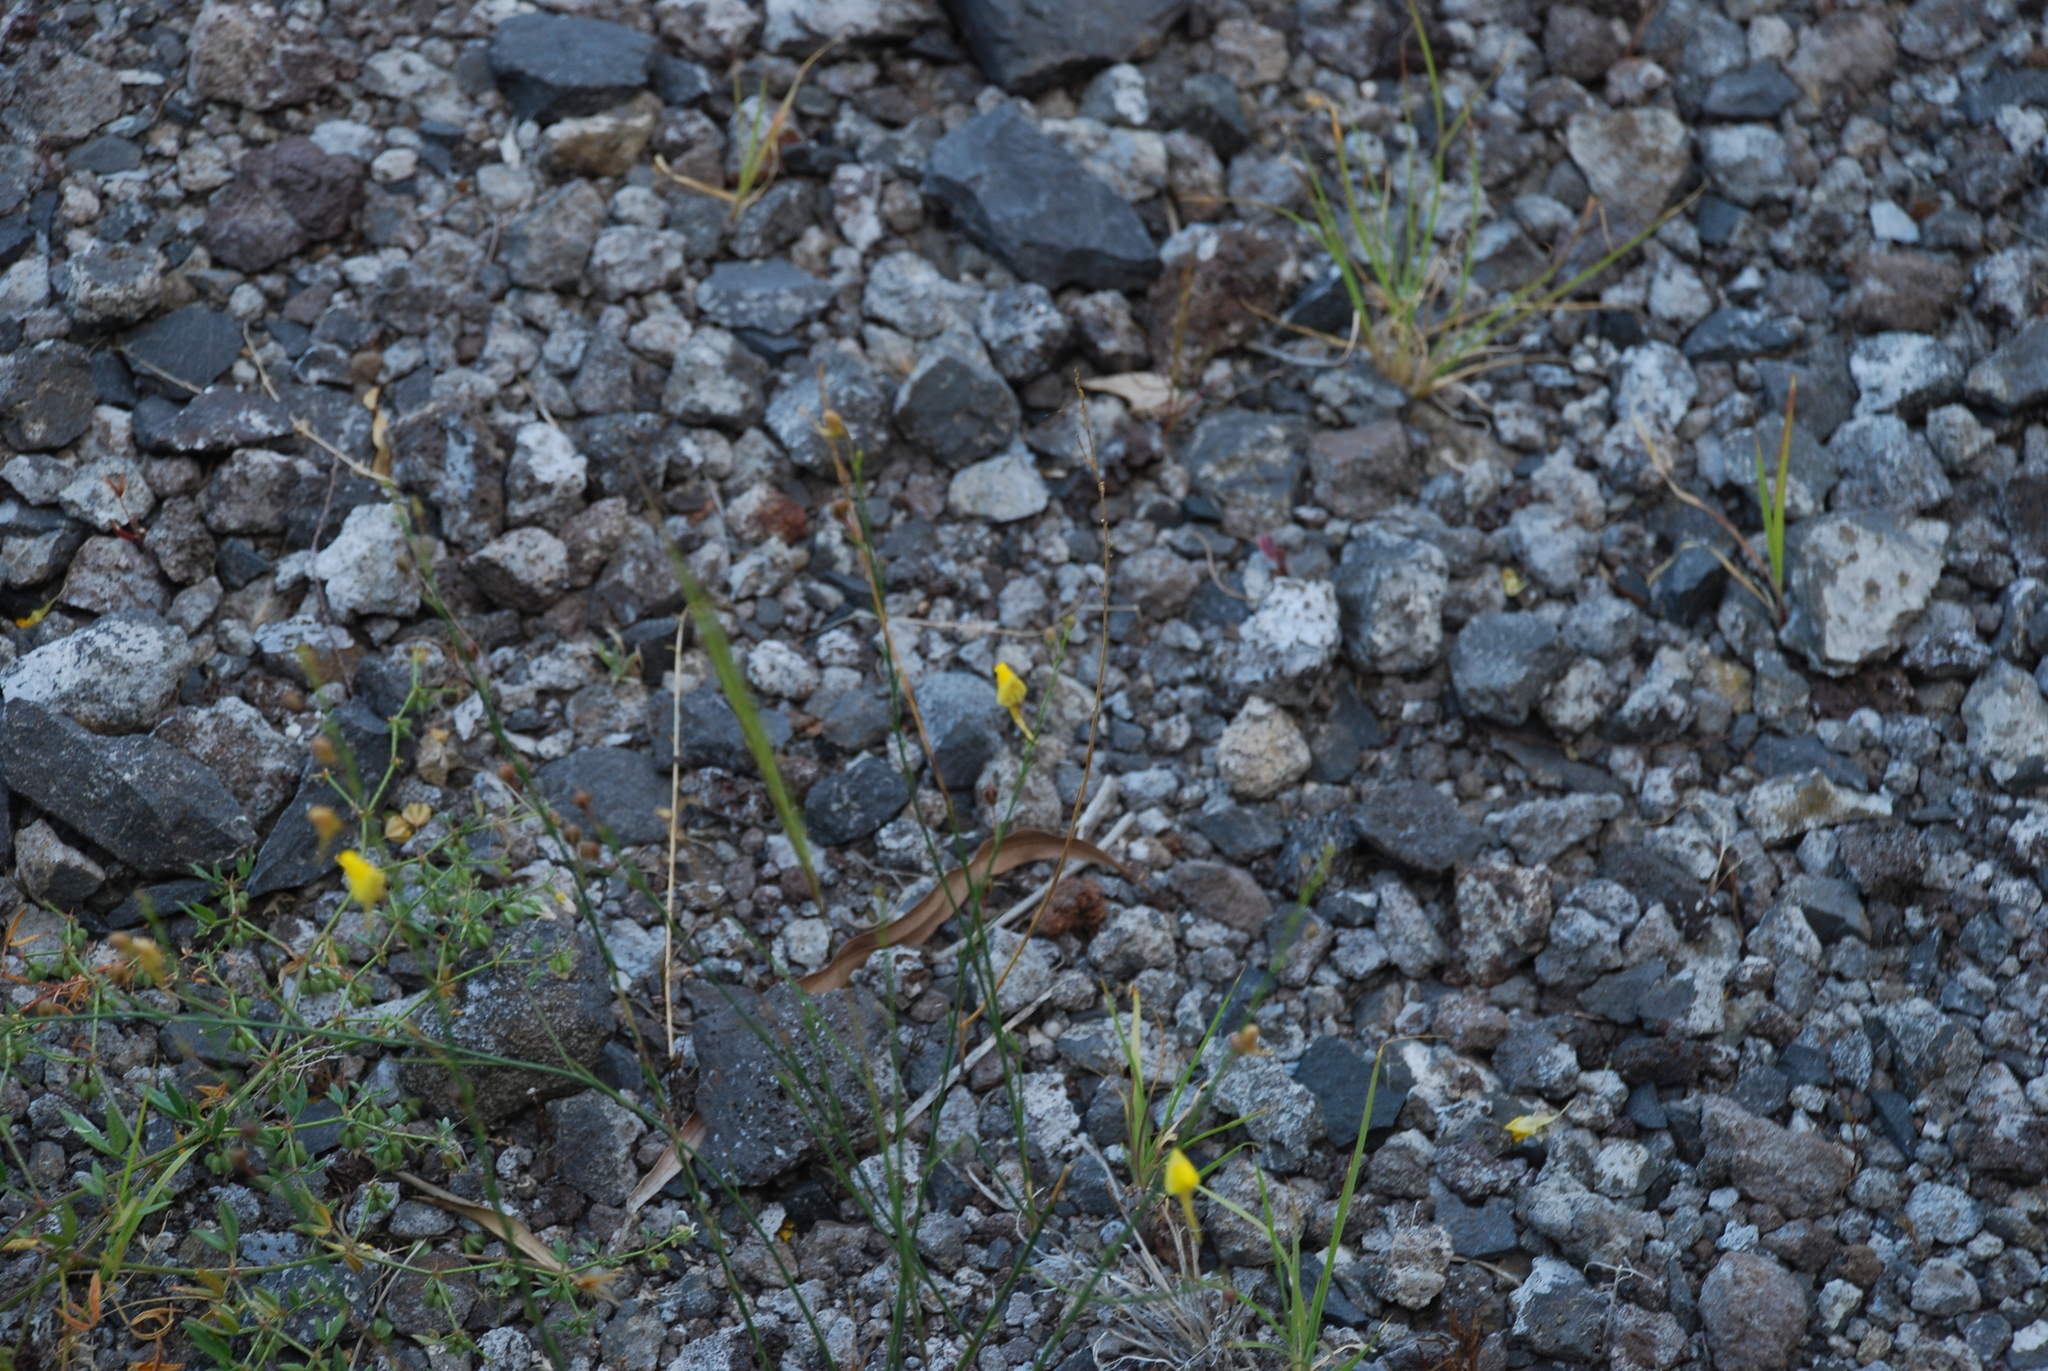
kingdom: Plantae
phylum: Tracheophyta
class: Magnoliopsida
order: Lamiales
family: Plantaginaceae
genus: Nanorrhinum
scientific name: Nanorrhinum scoparium
